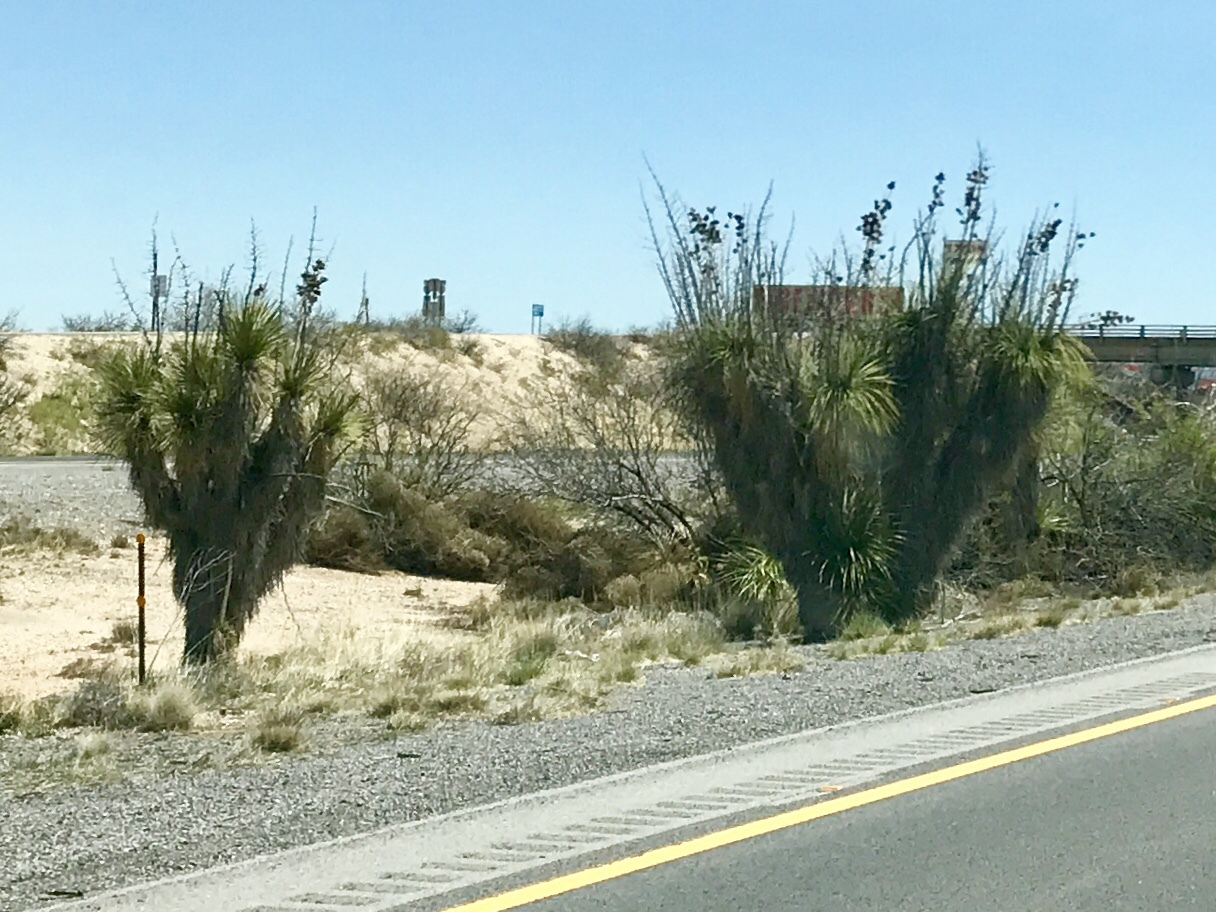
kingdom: Plantae
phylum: Tracheophyta
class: Liliopsida
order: Asparagales
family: Asparagaceae
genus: Yucca
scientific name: Yucca elata
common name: Palmella
